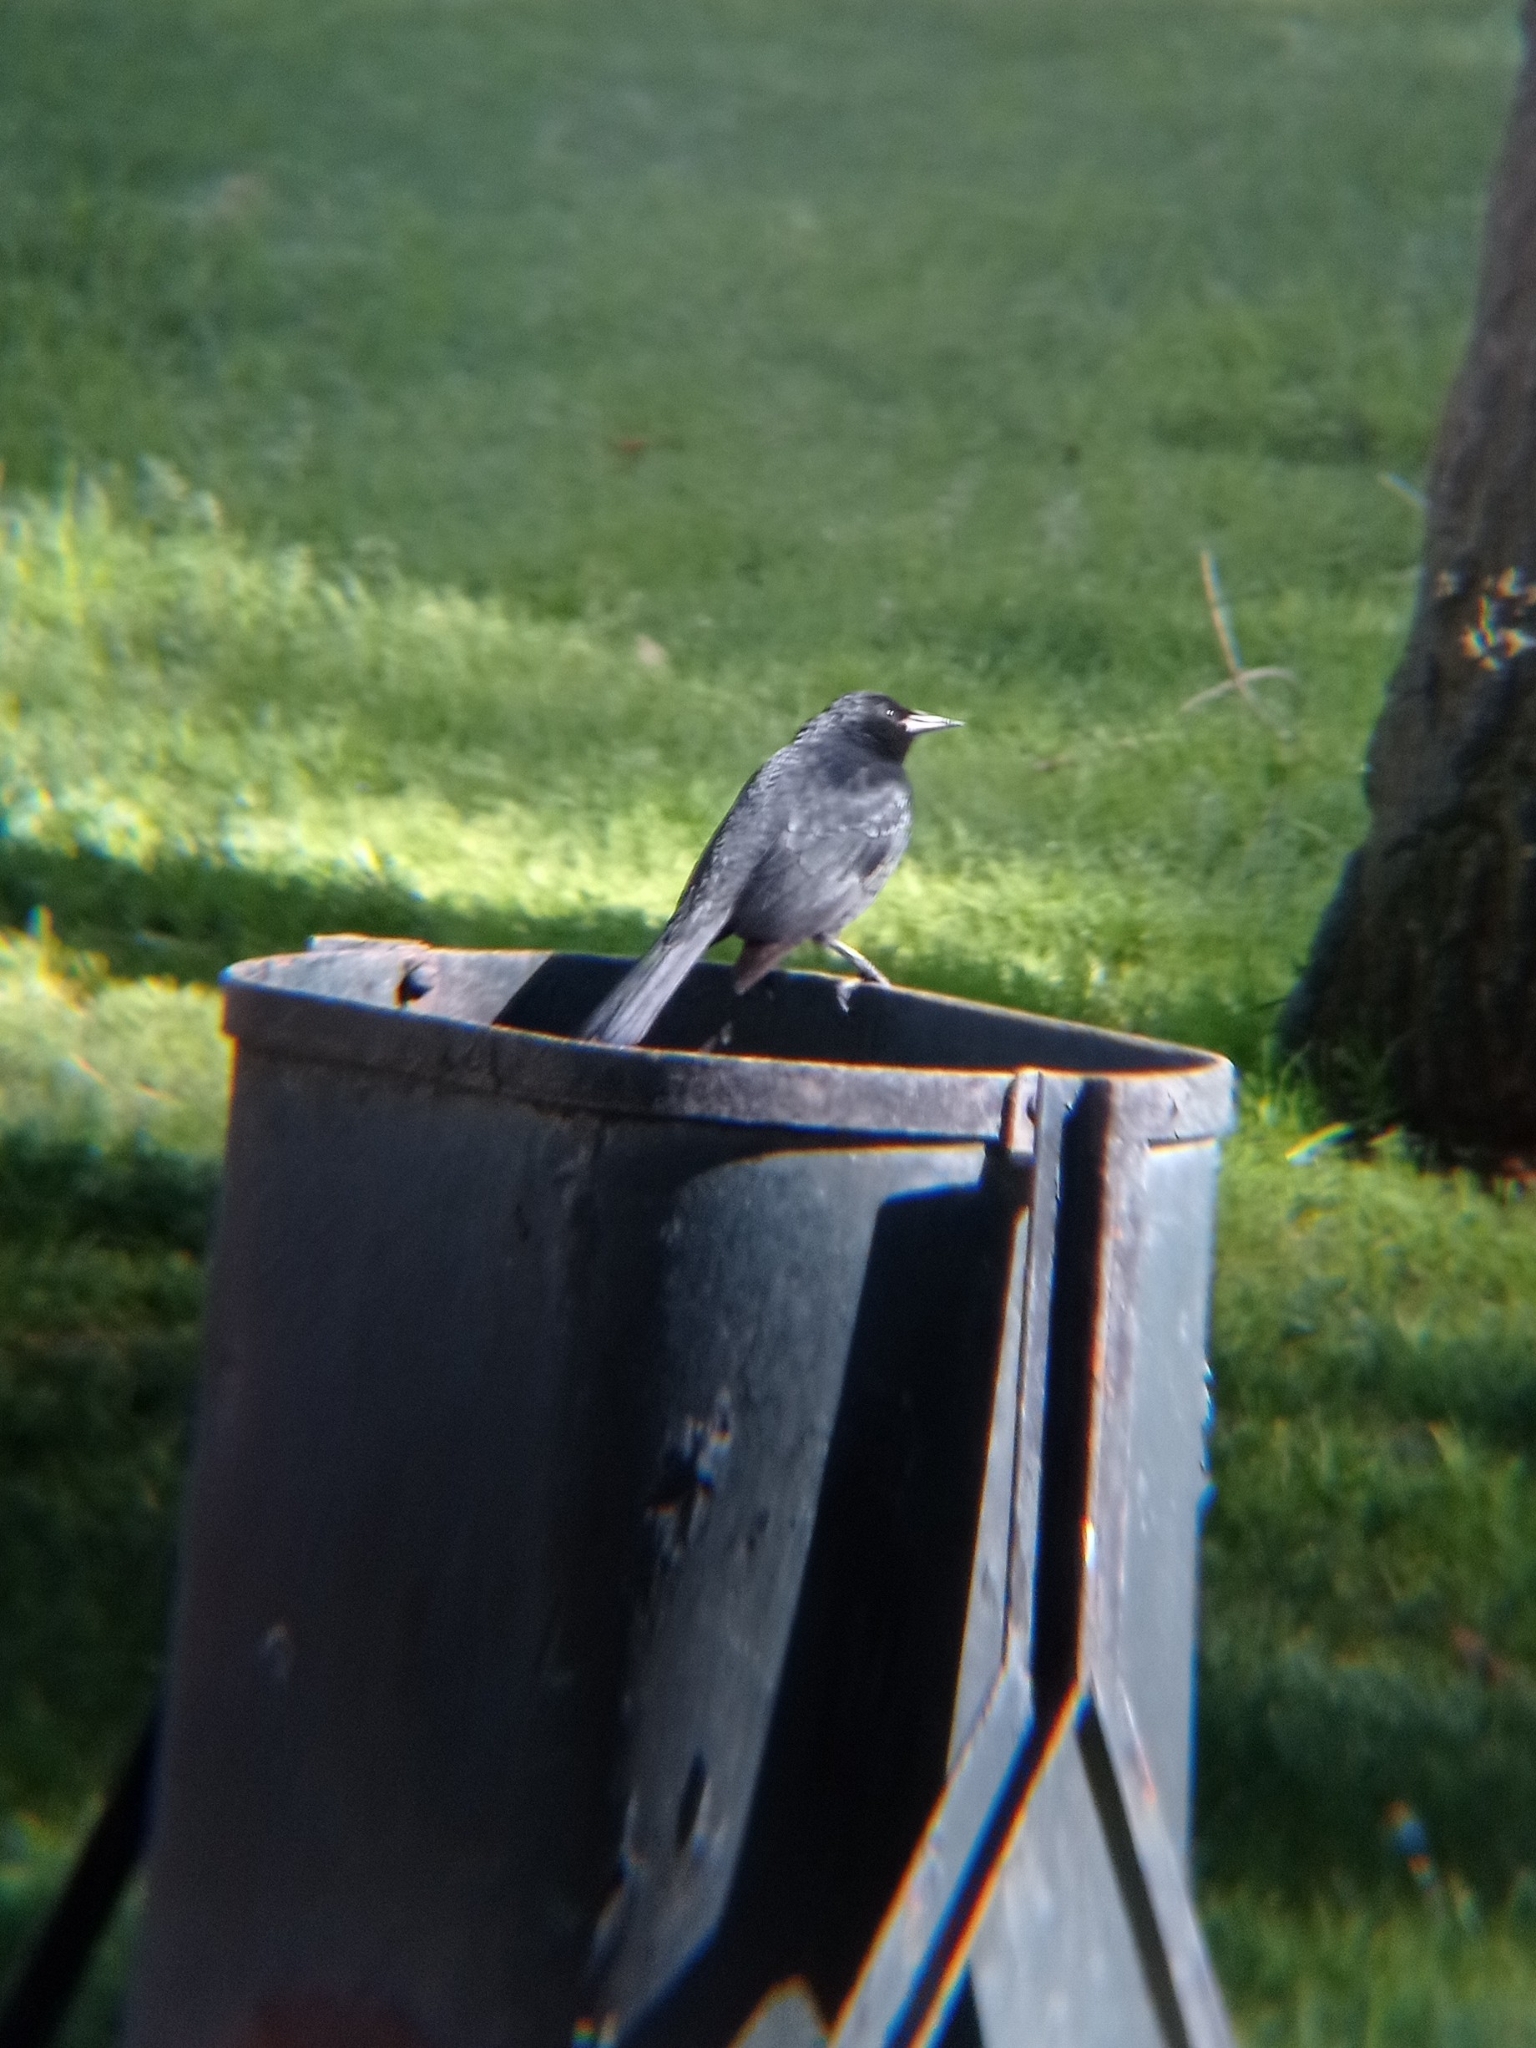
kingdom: Animalia
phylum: Chordata
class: Aves
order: Passeriformes
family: Icteridae
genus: Curaeus
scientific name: Curaeus curaeus
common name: Austral blackbird
